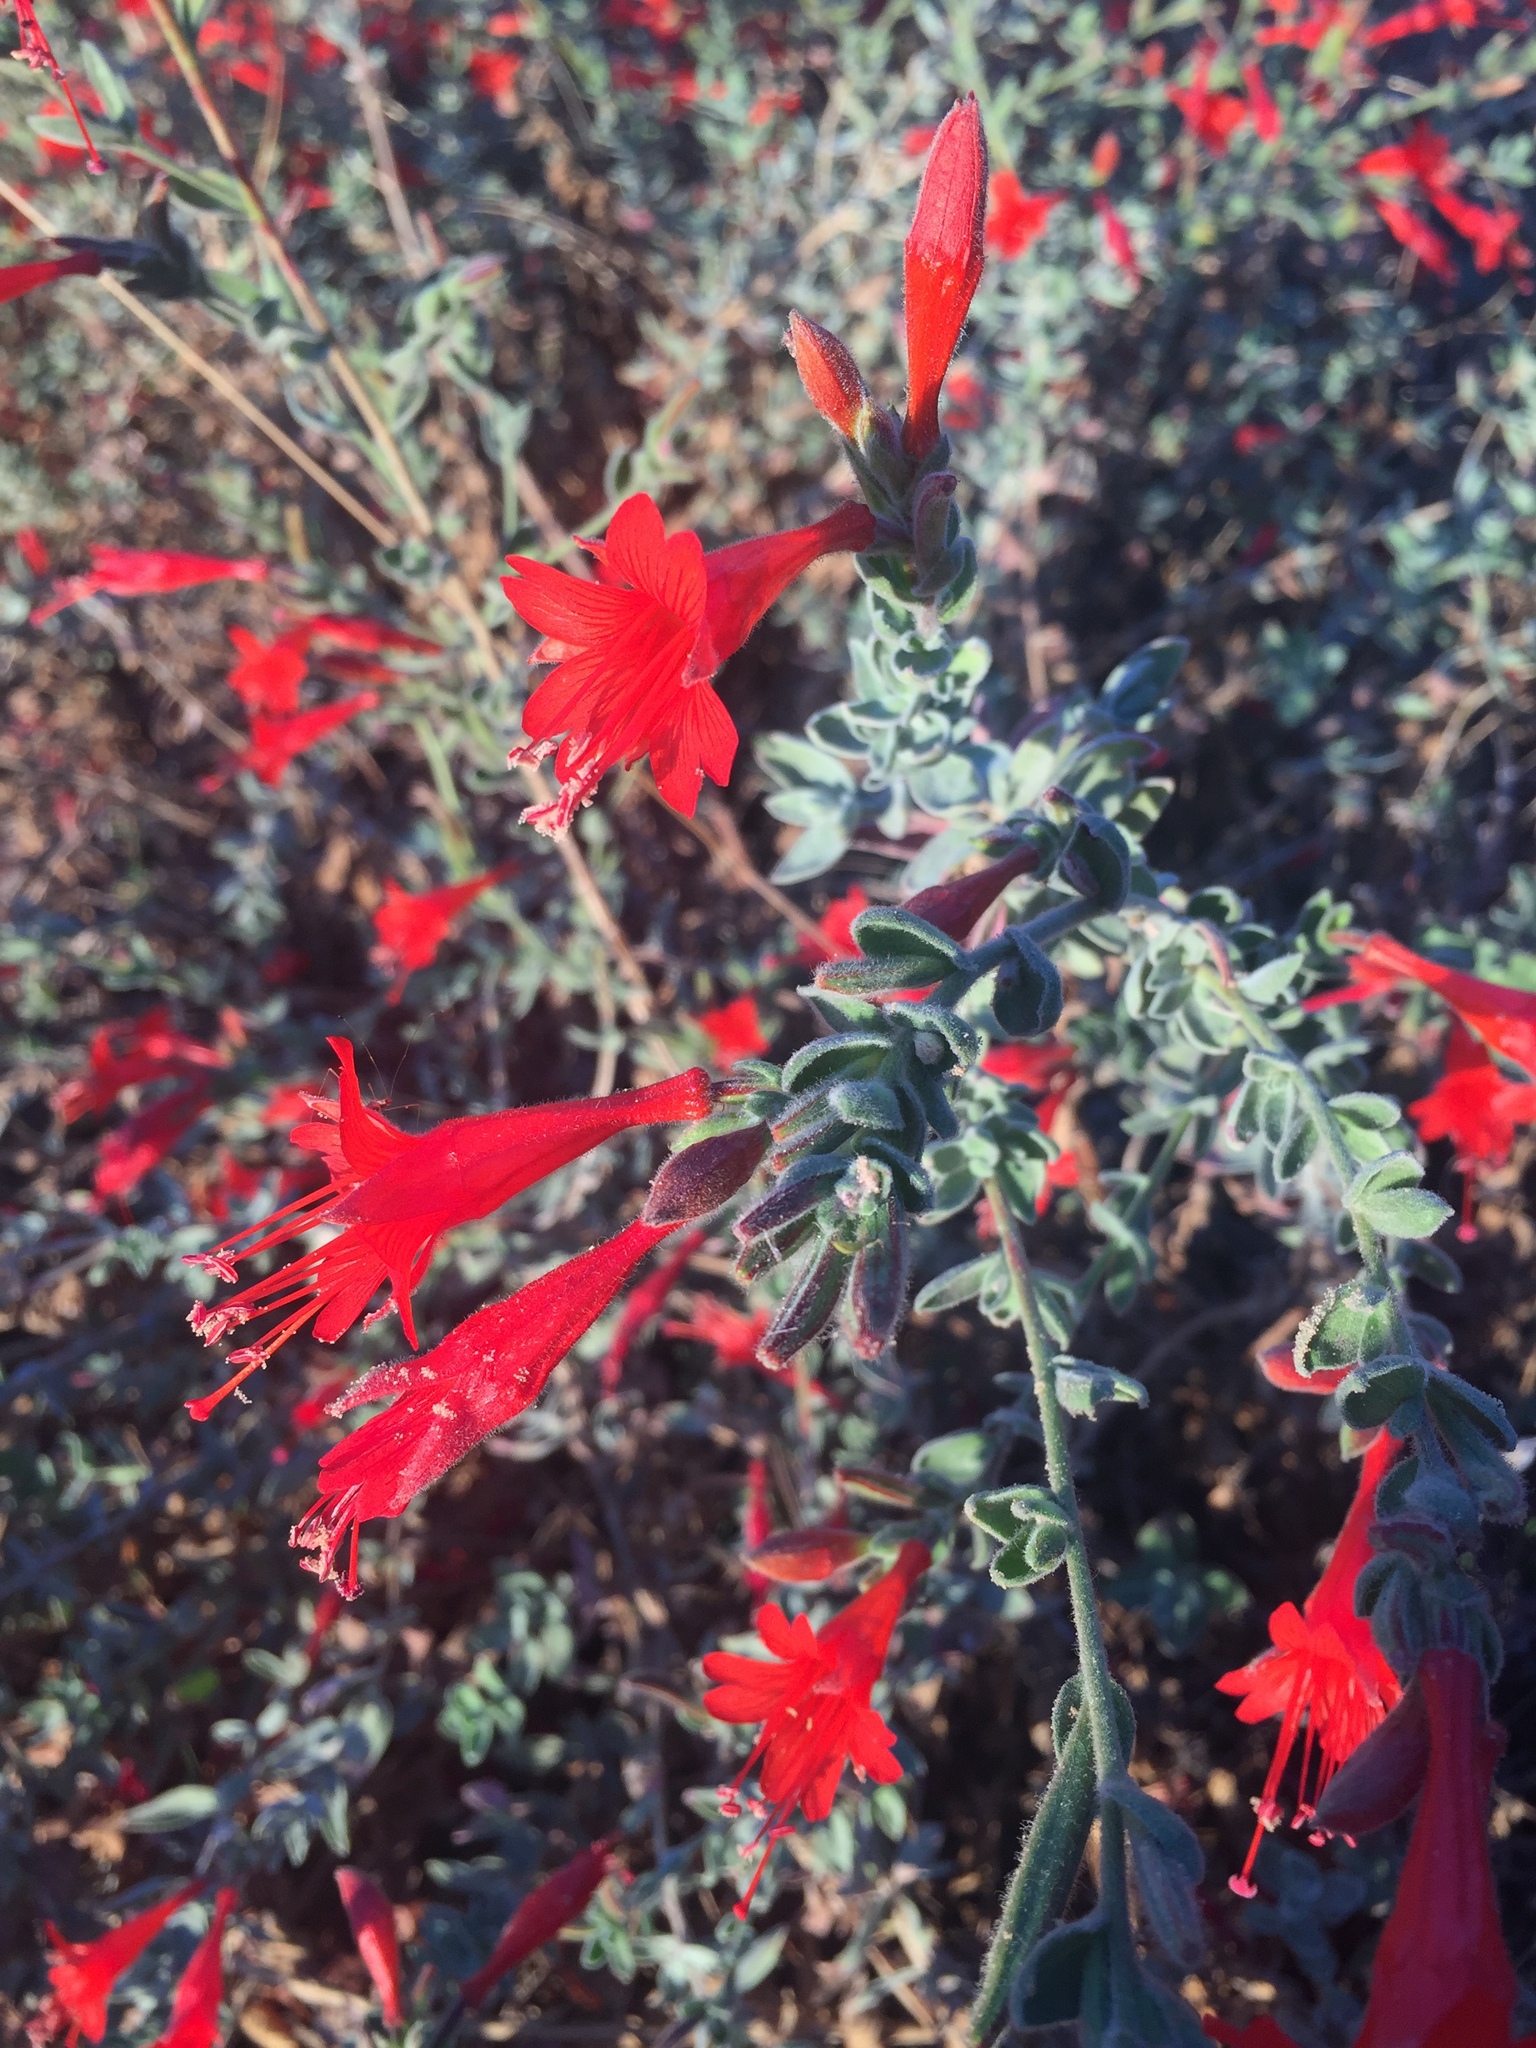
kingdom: Plantae
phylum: Tracheophyta
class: Magnoliopsida
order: Myrtales
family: Onagraceae
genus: Epilobium
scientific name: Epilobium canum
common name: California-fuchsia
